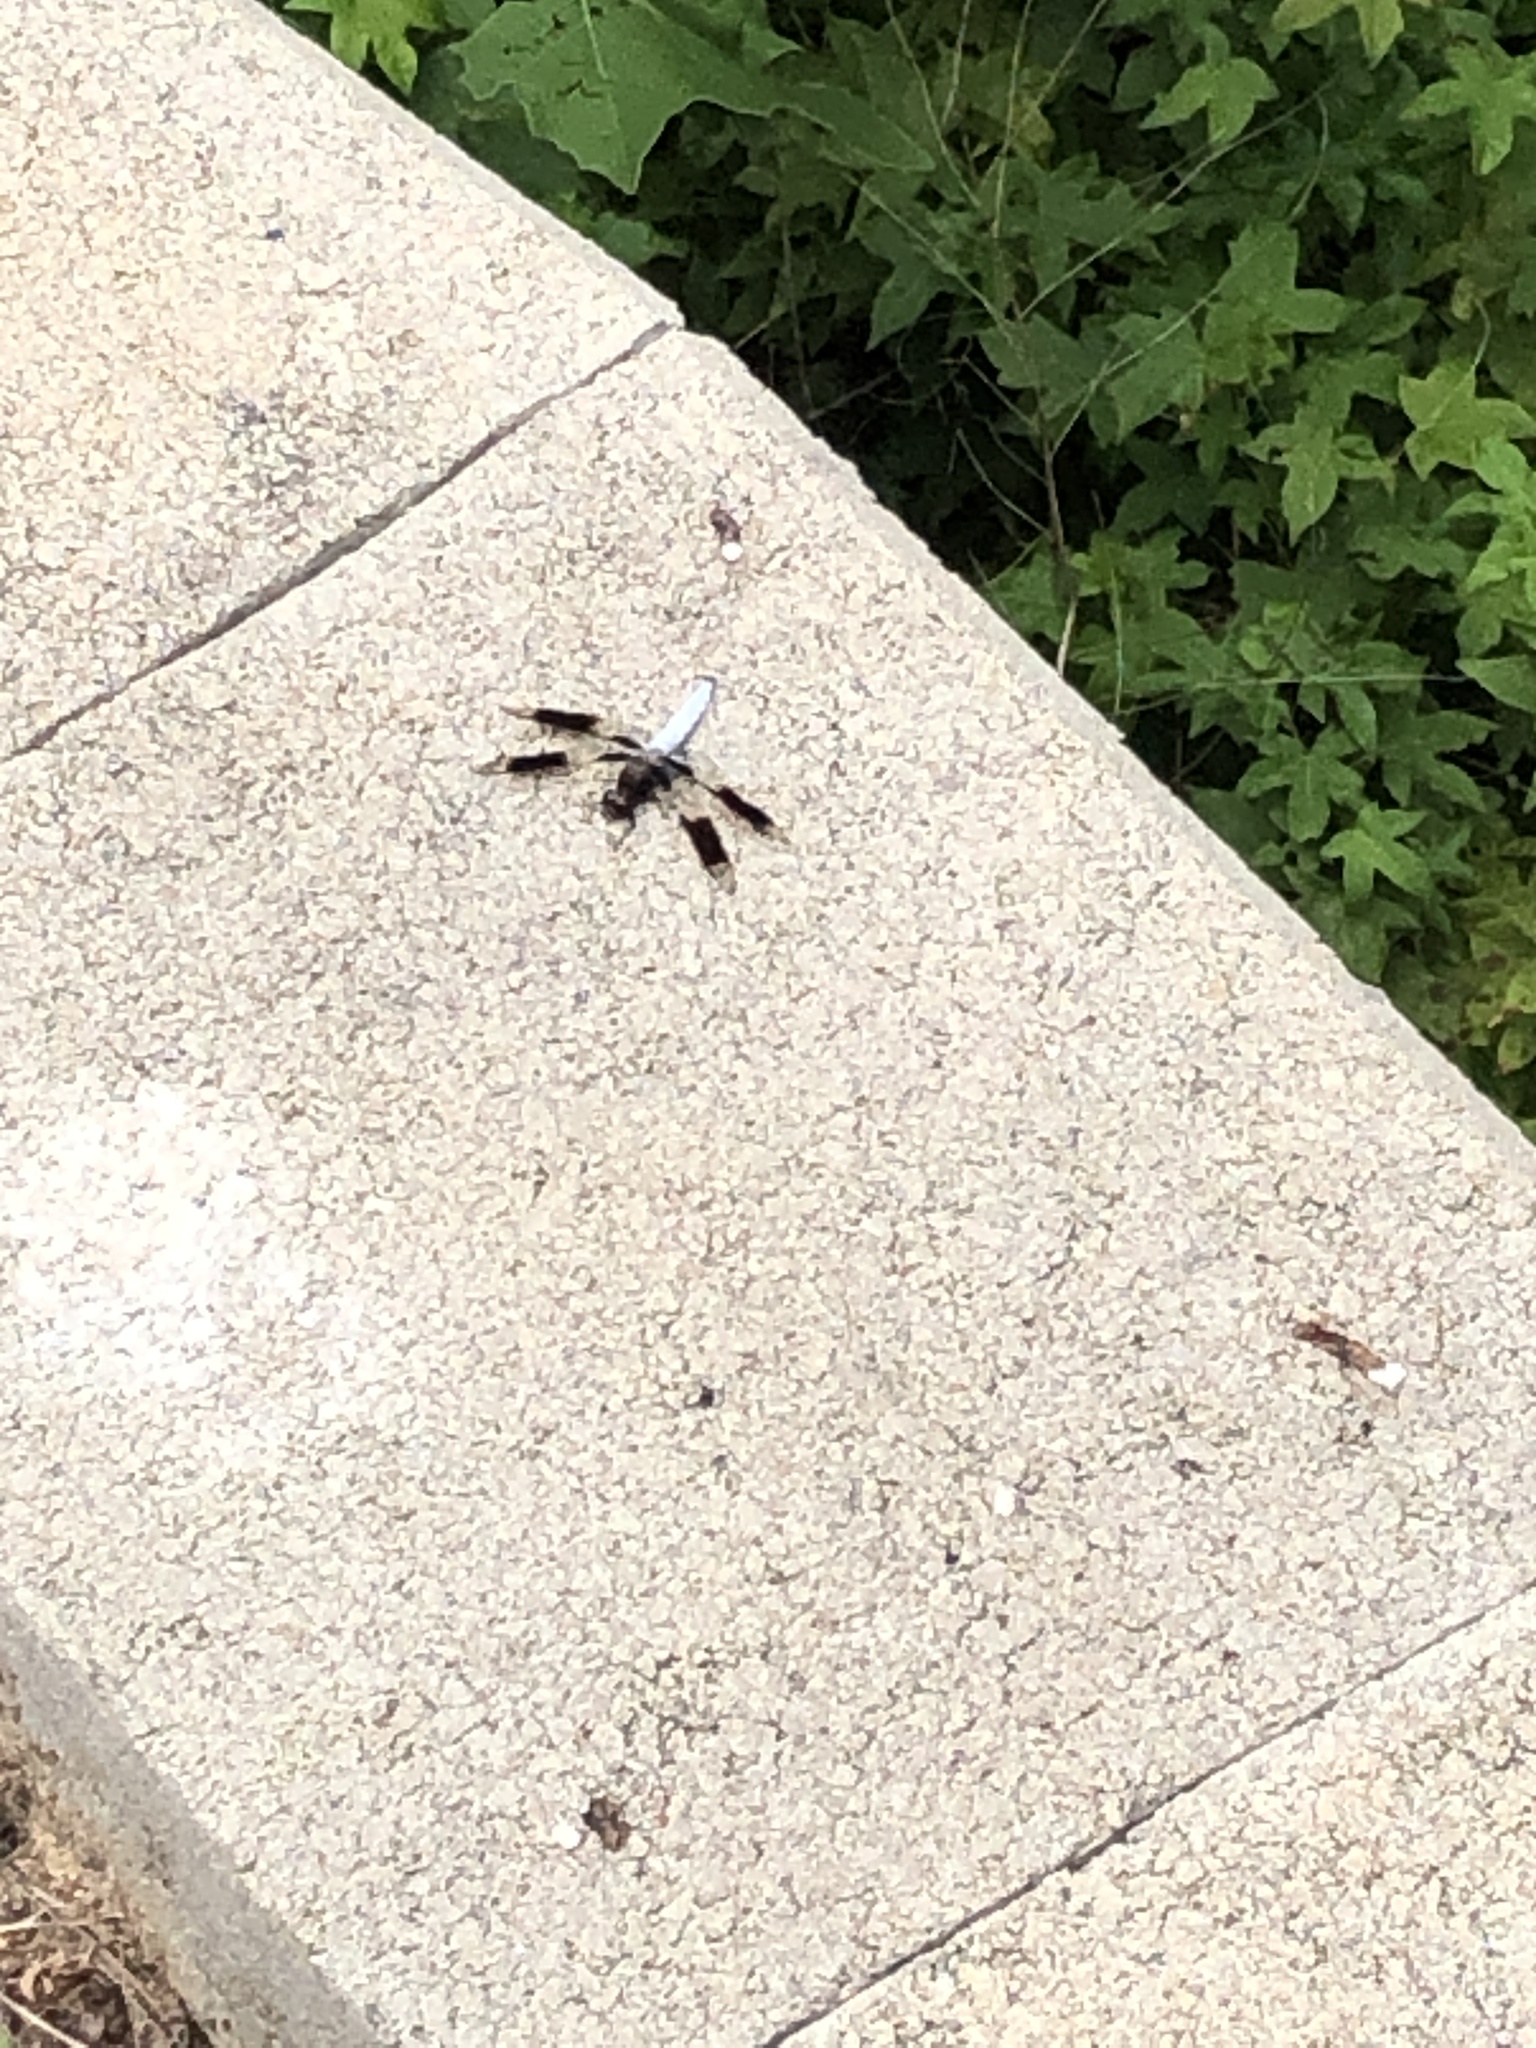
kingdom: Animalia
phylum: Arthropoda
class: Insecta
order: Odonata
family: Libellulidae
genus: Plathemis
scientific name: Plathemis lydia
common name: Common whitetail
